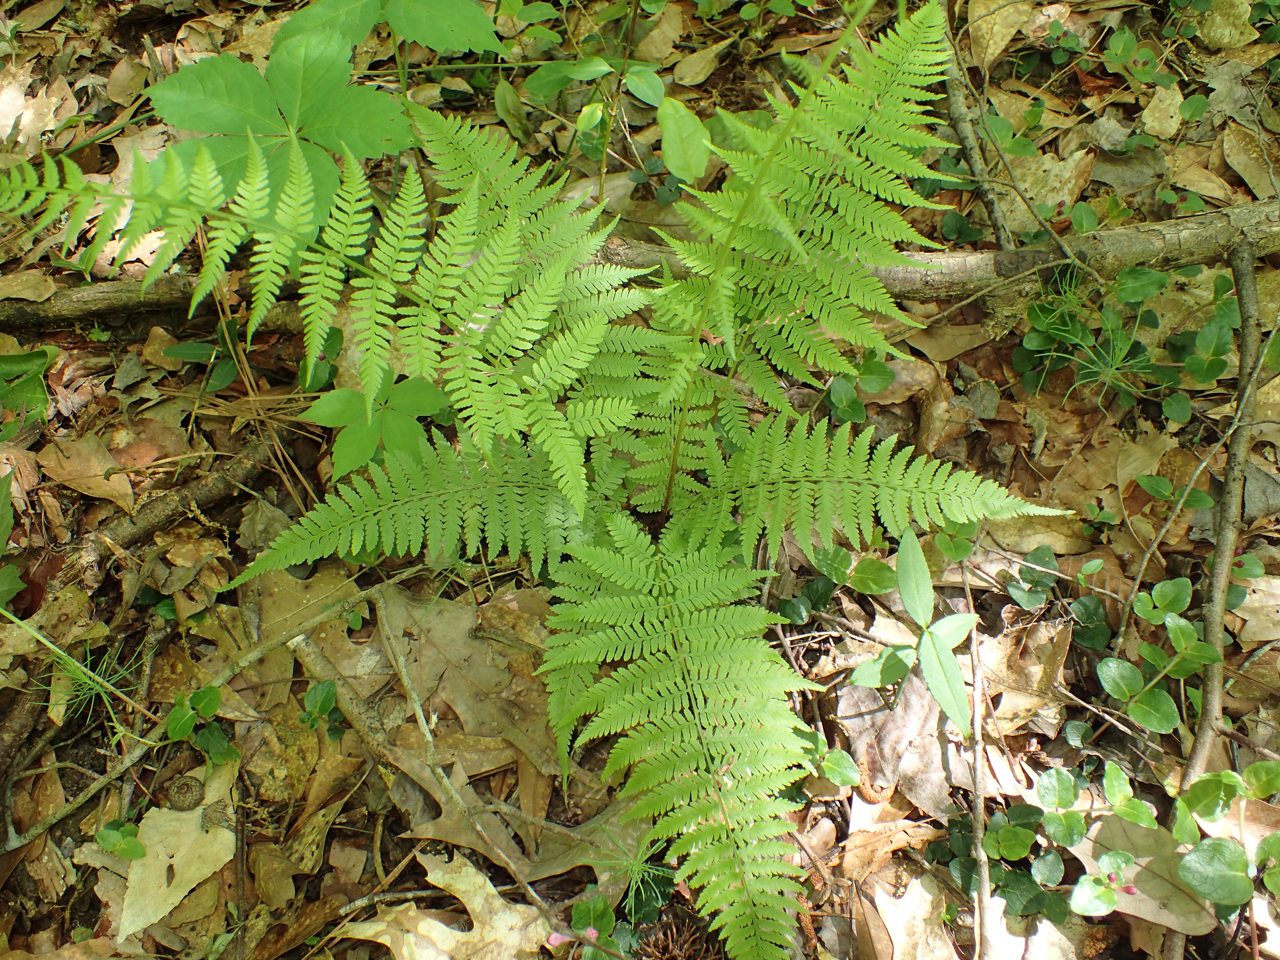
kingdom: Plantae
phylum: Tracheophyta
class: Polypodiopsida
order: Polypodiales
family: Athyriaceae
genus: Athyrium
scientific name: Athyrium asplenioides
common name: Southern lady fern
